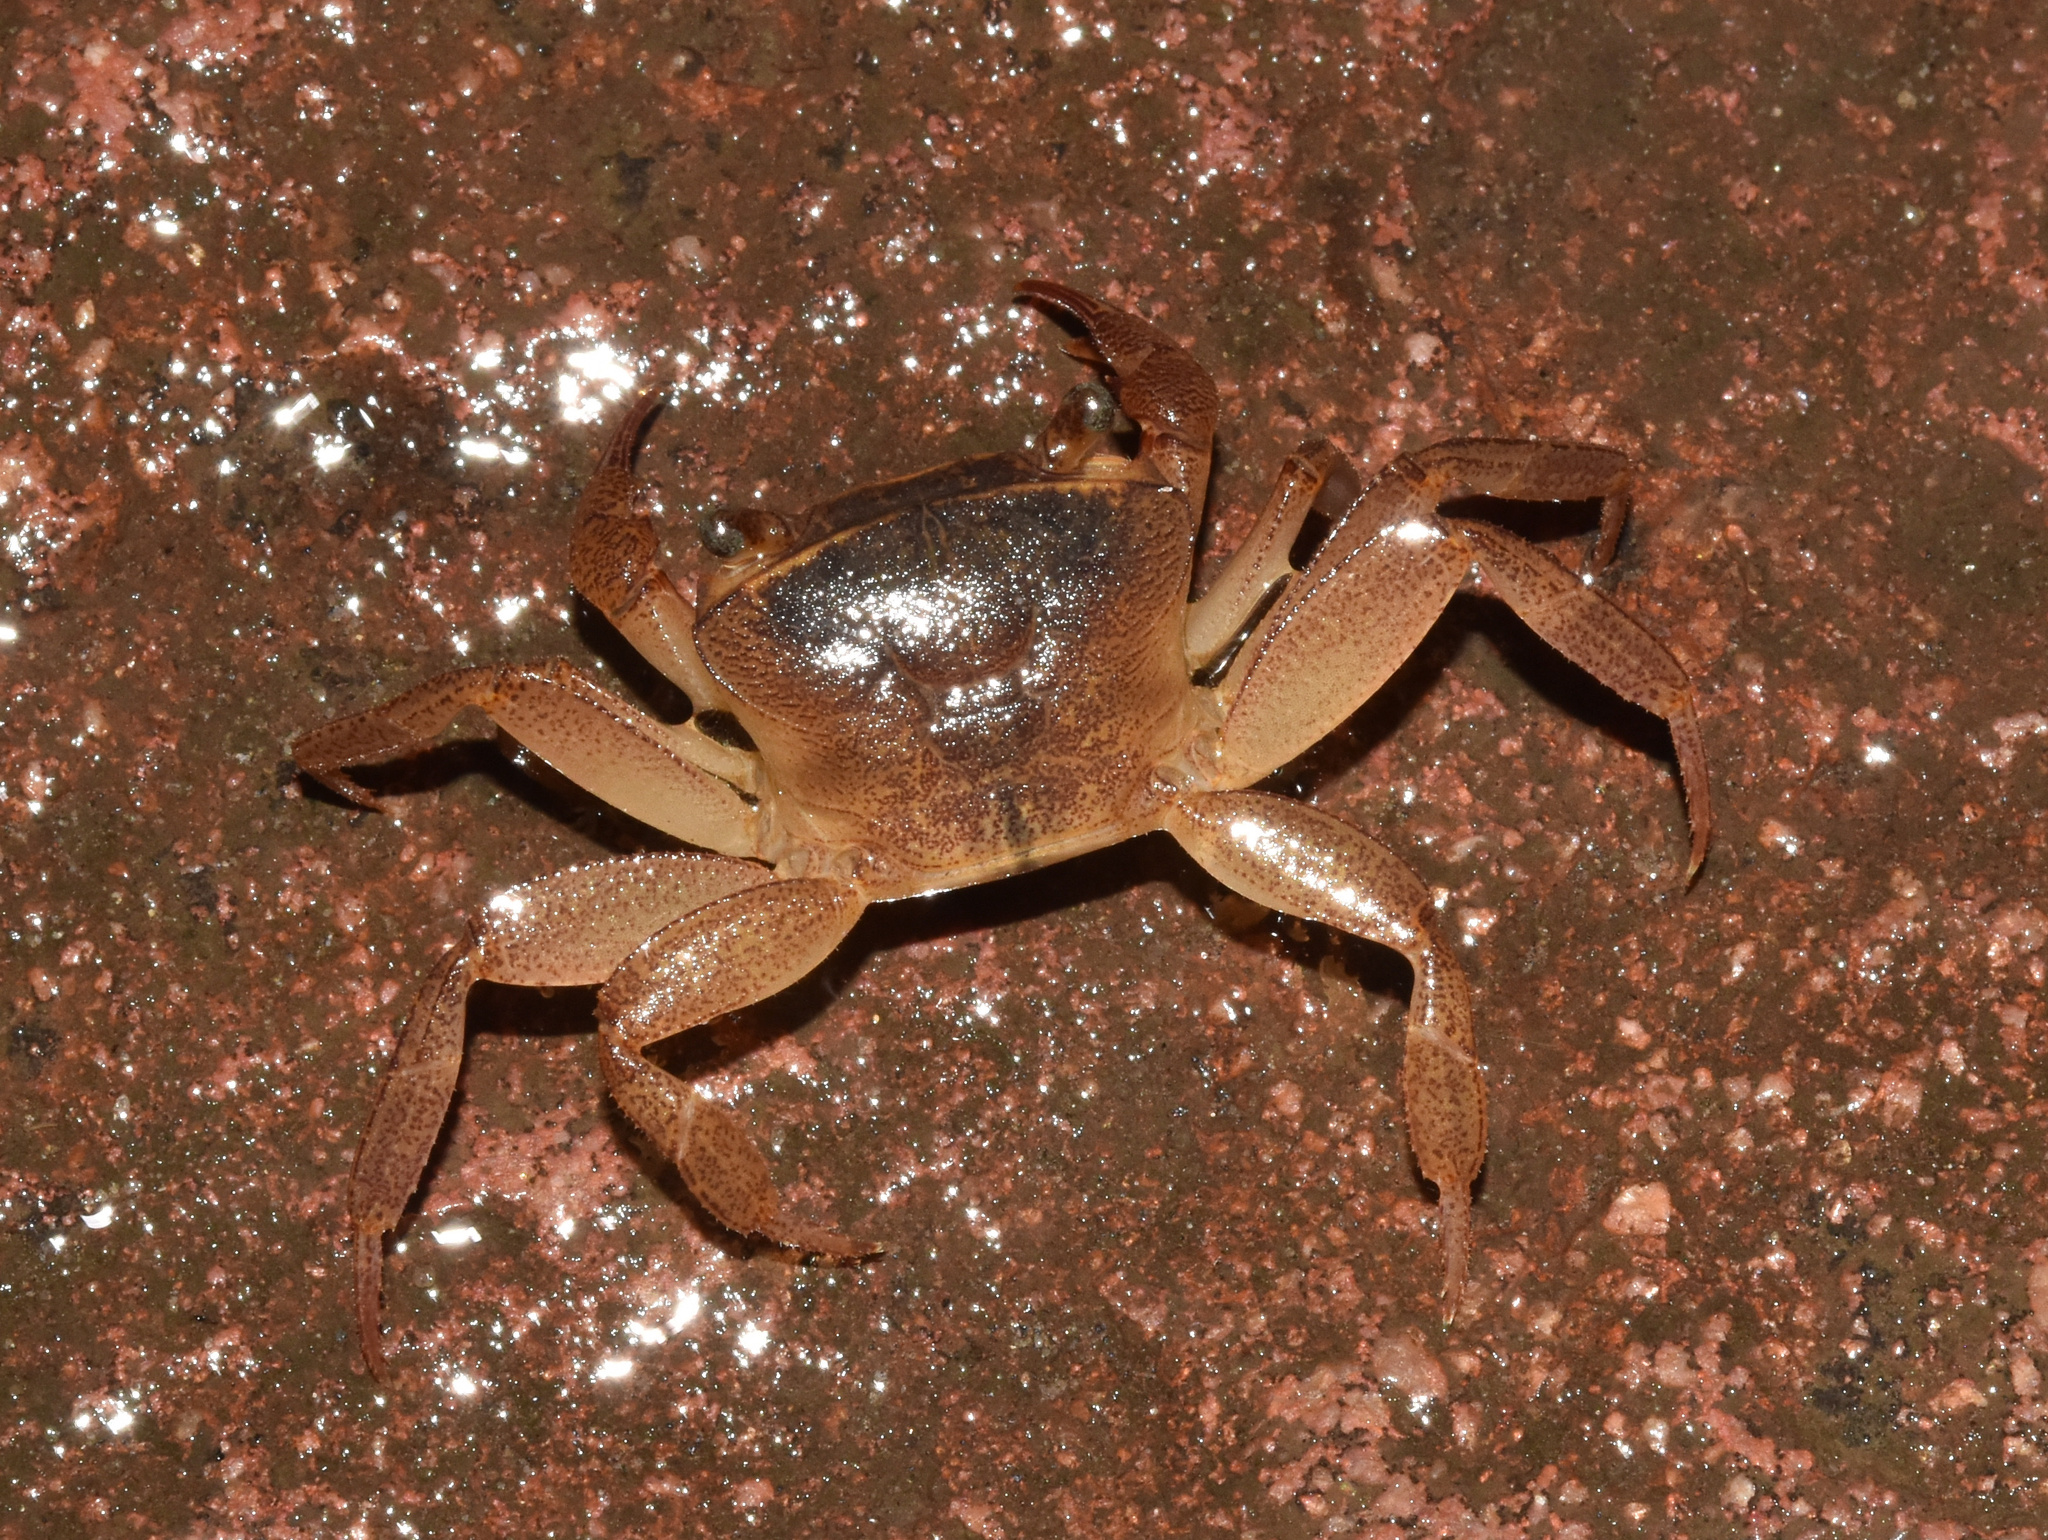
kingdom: Animalia
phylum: Arthropoda
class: Malacostraca
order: Decapoda
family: Potamonautidae
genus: Potamonautes
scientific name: Potamonautes danielsi
